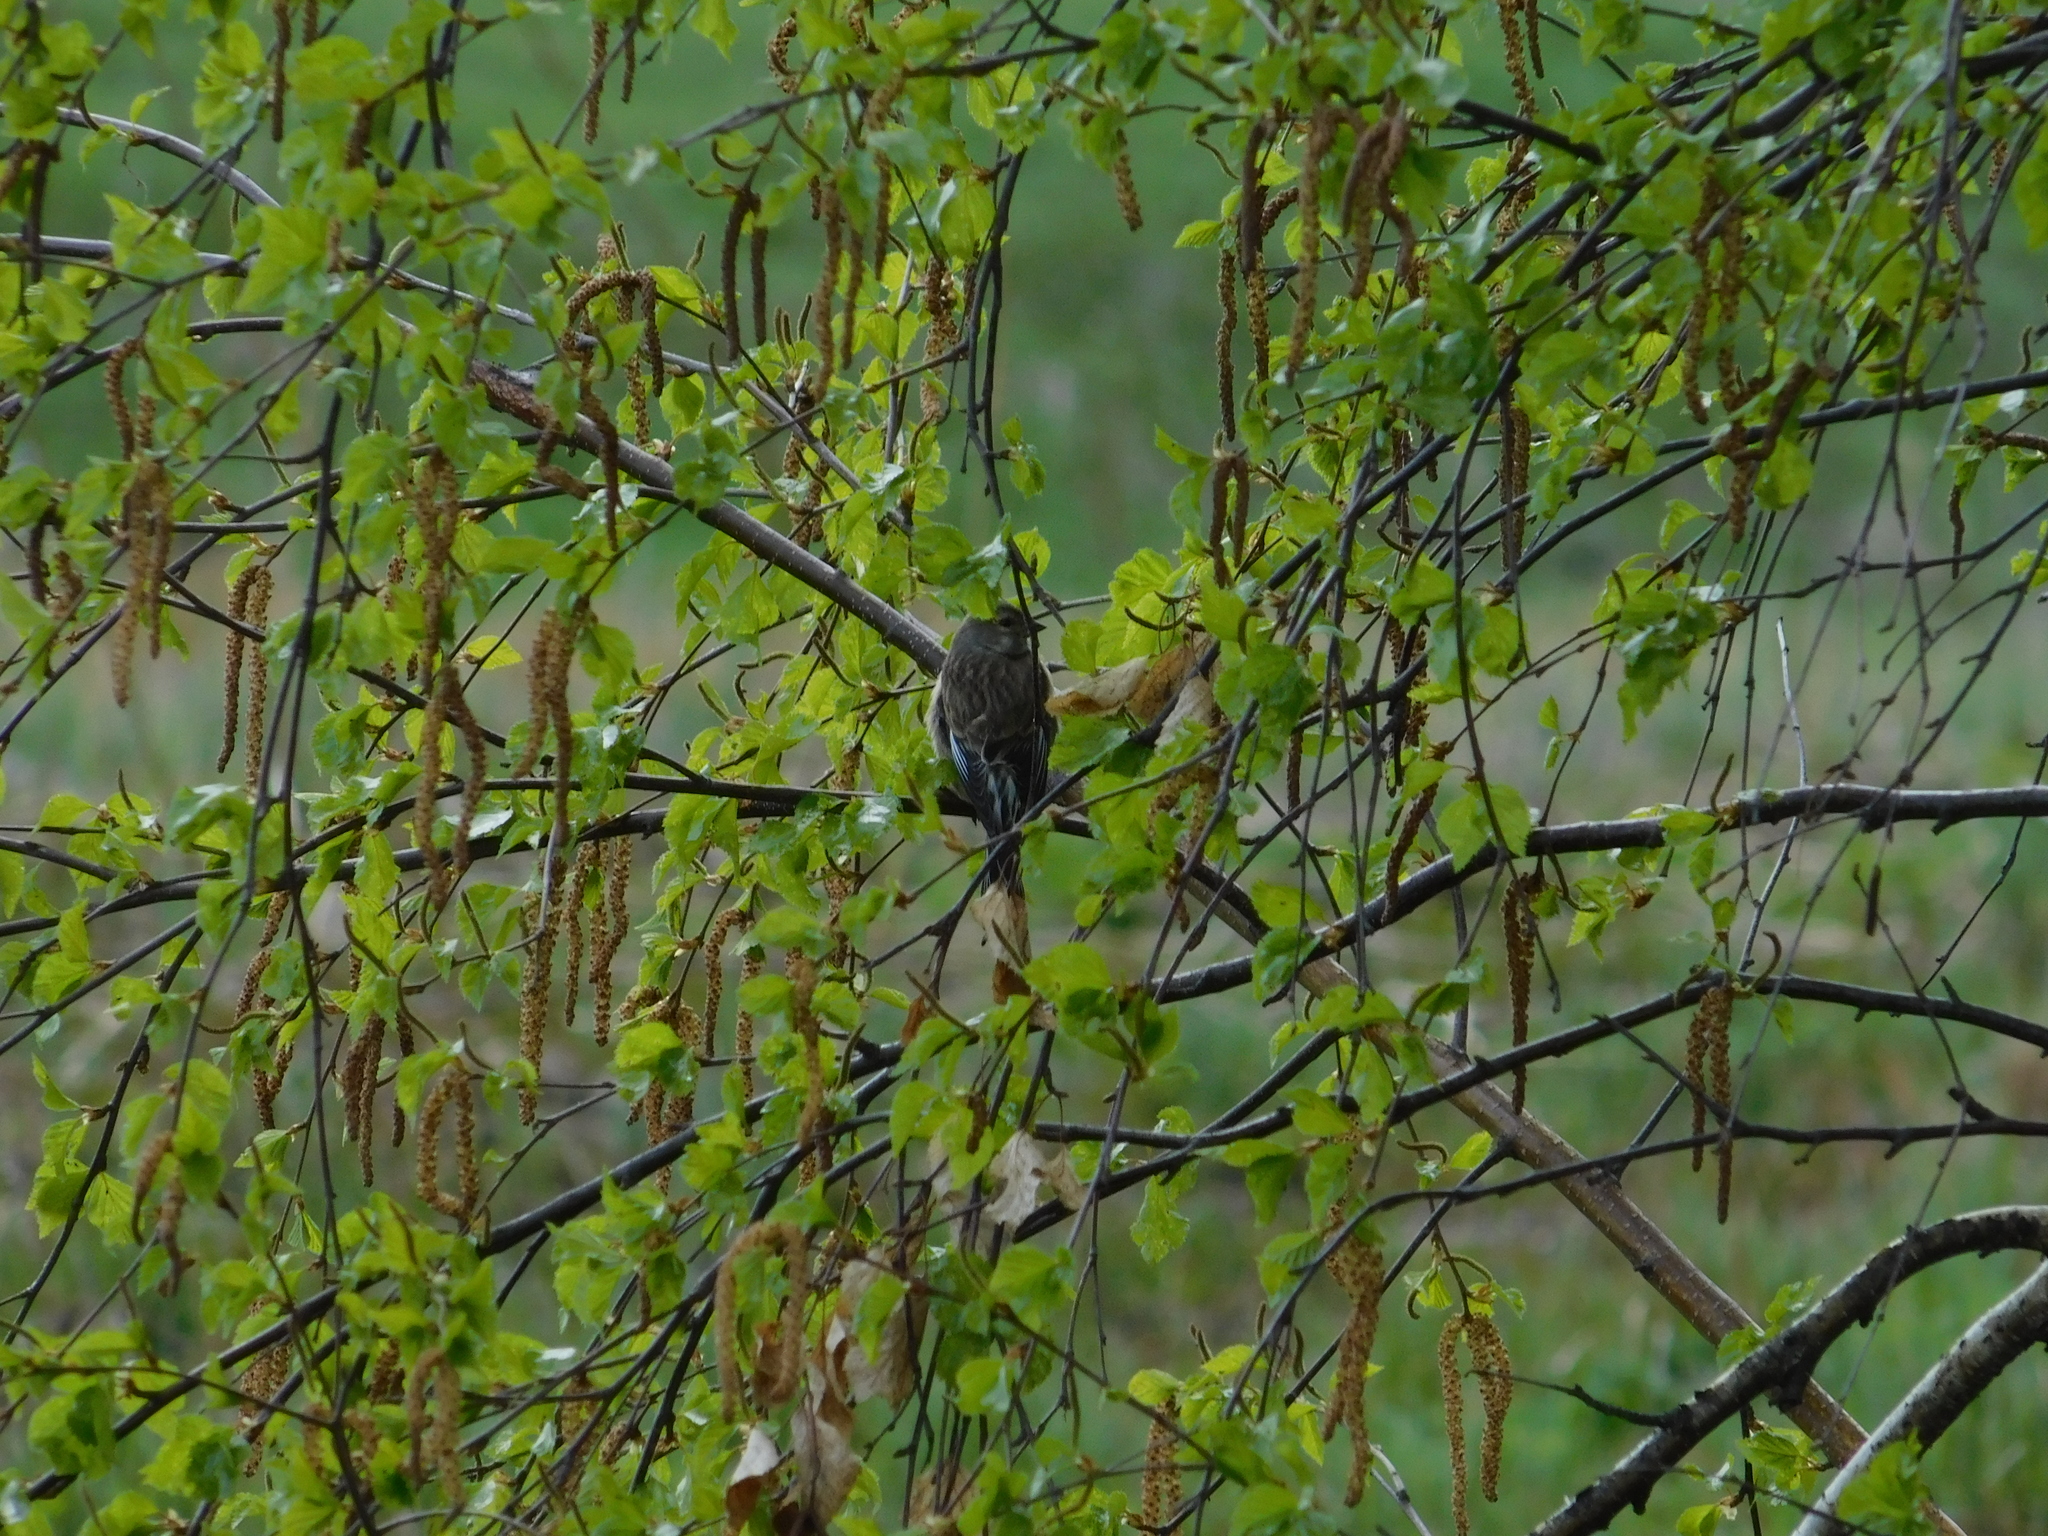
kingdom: Animalia
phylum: Chordata
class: Aves
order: Passeriformes
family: Fringillidae
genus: Linaria
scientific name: Linaria cannabina
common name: Common linnet
